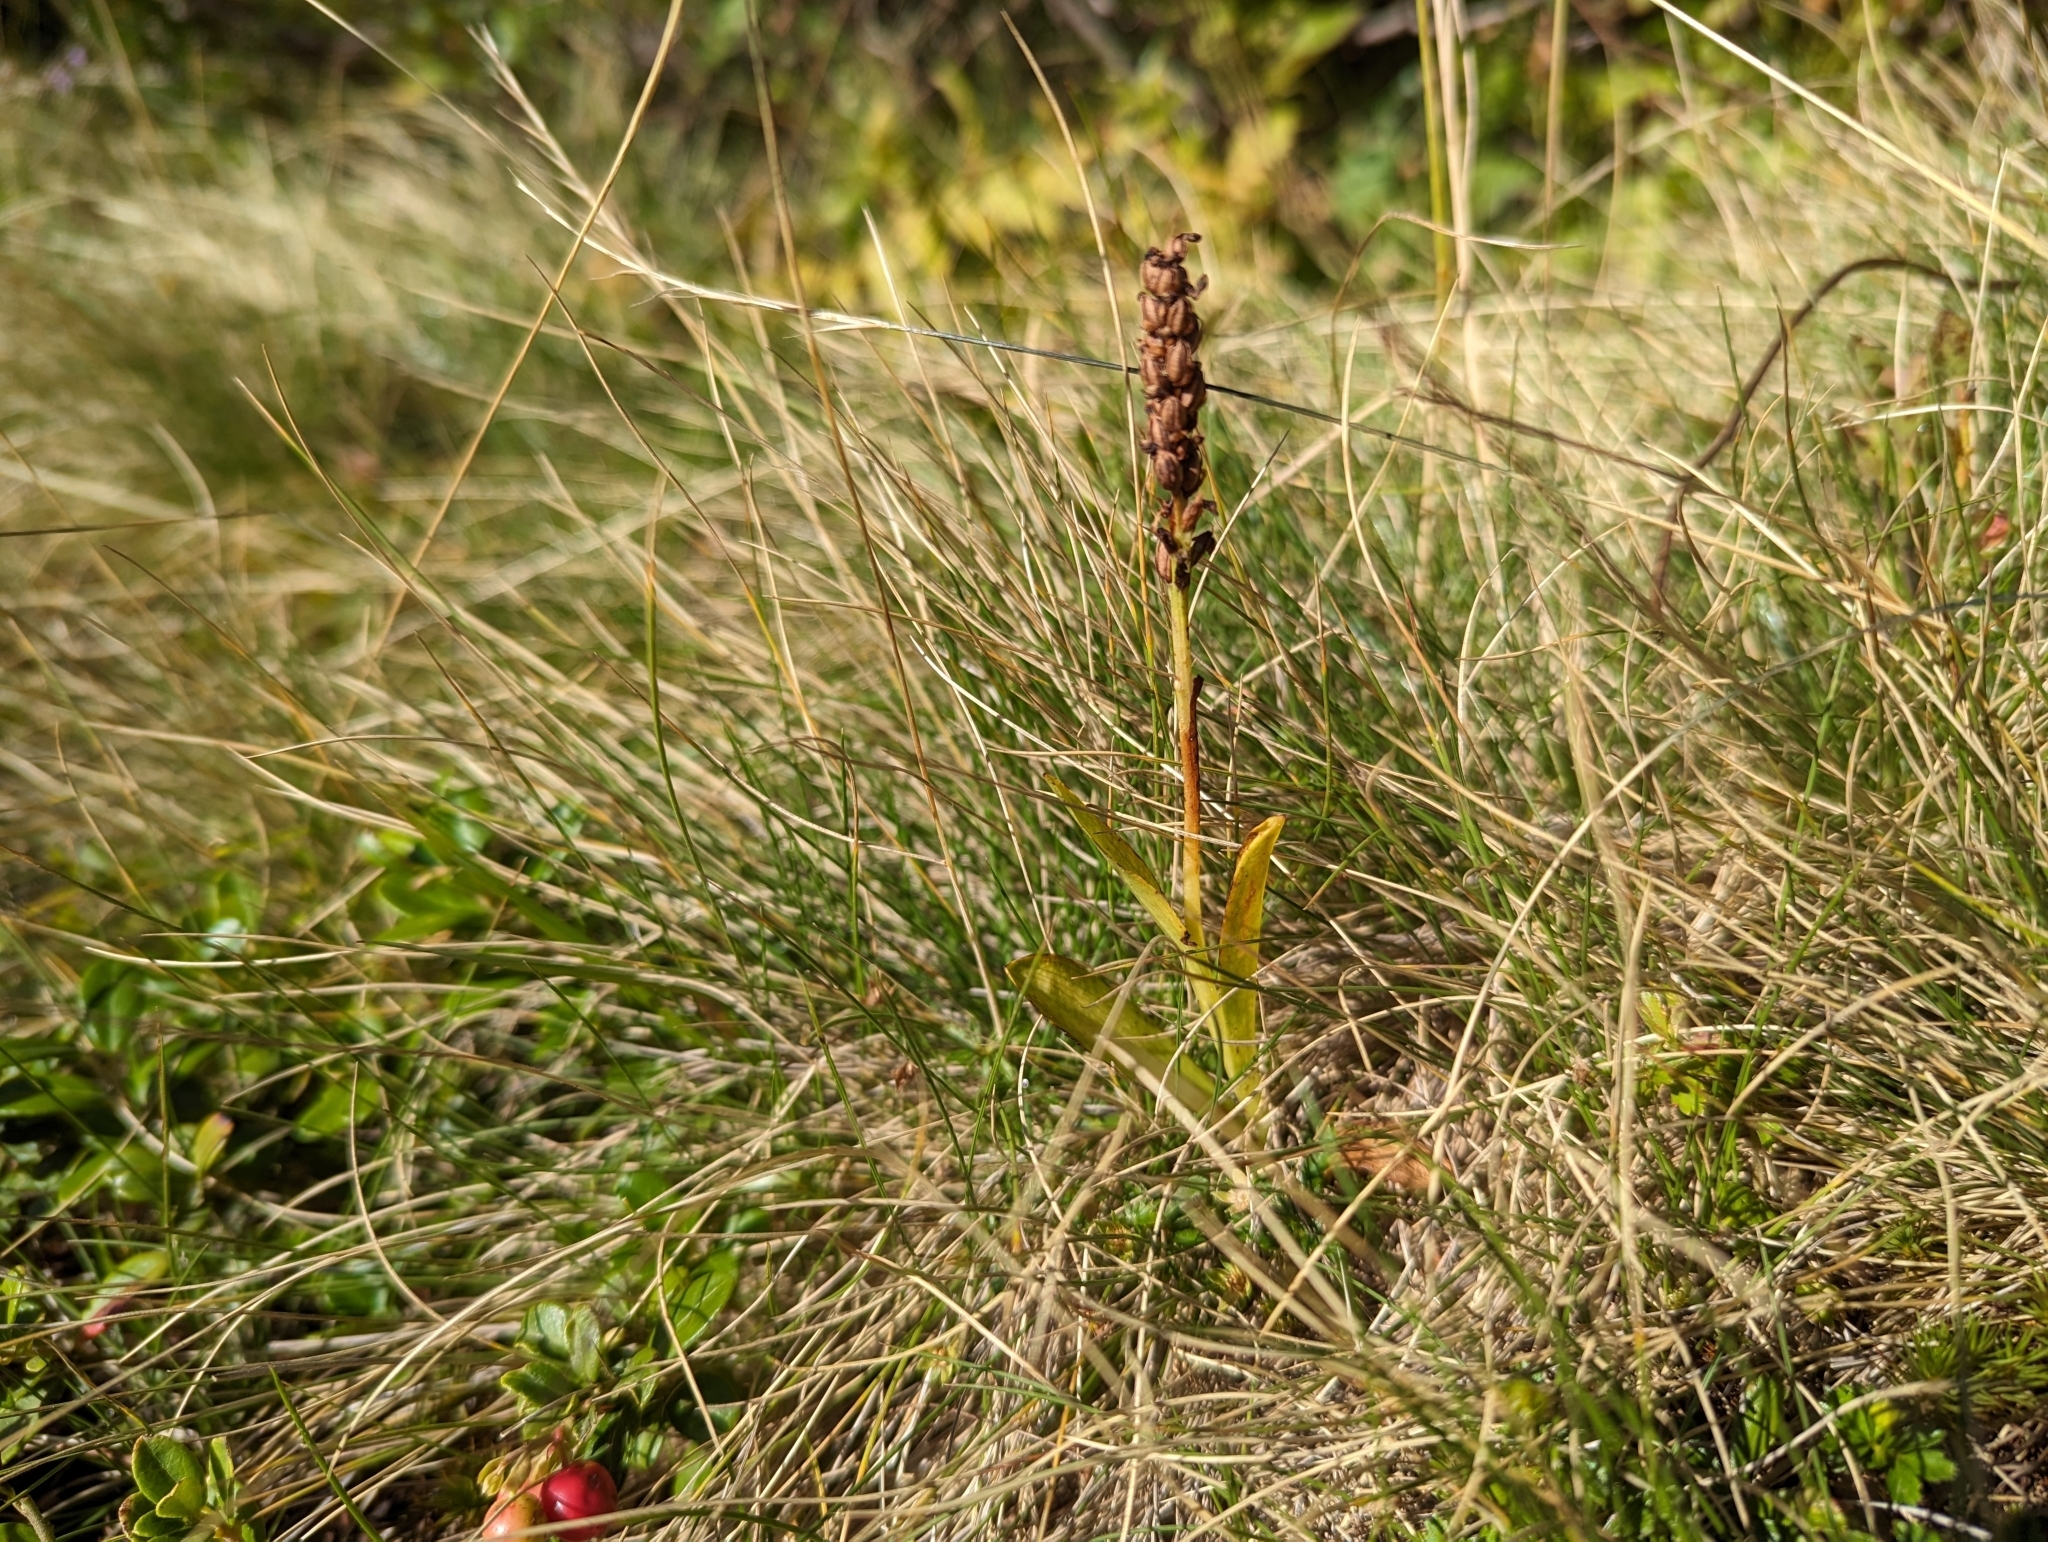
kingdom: Plantae
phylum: Tracheophyta
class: Liliopsida
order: Asparagales
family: Orchidaceae
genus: Pseudorchis
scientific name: Pseudorchis albida
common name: Small-white orchid
